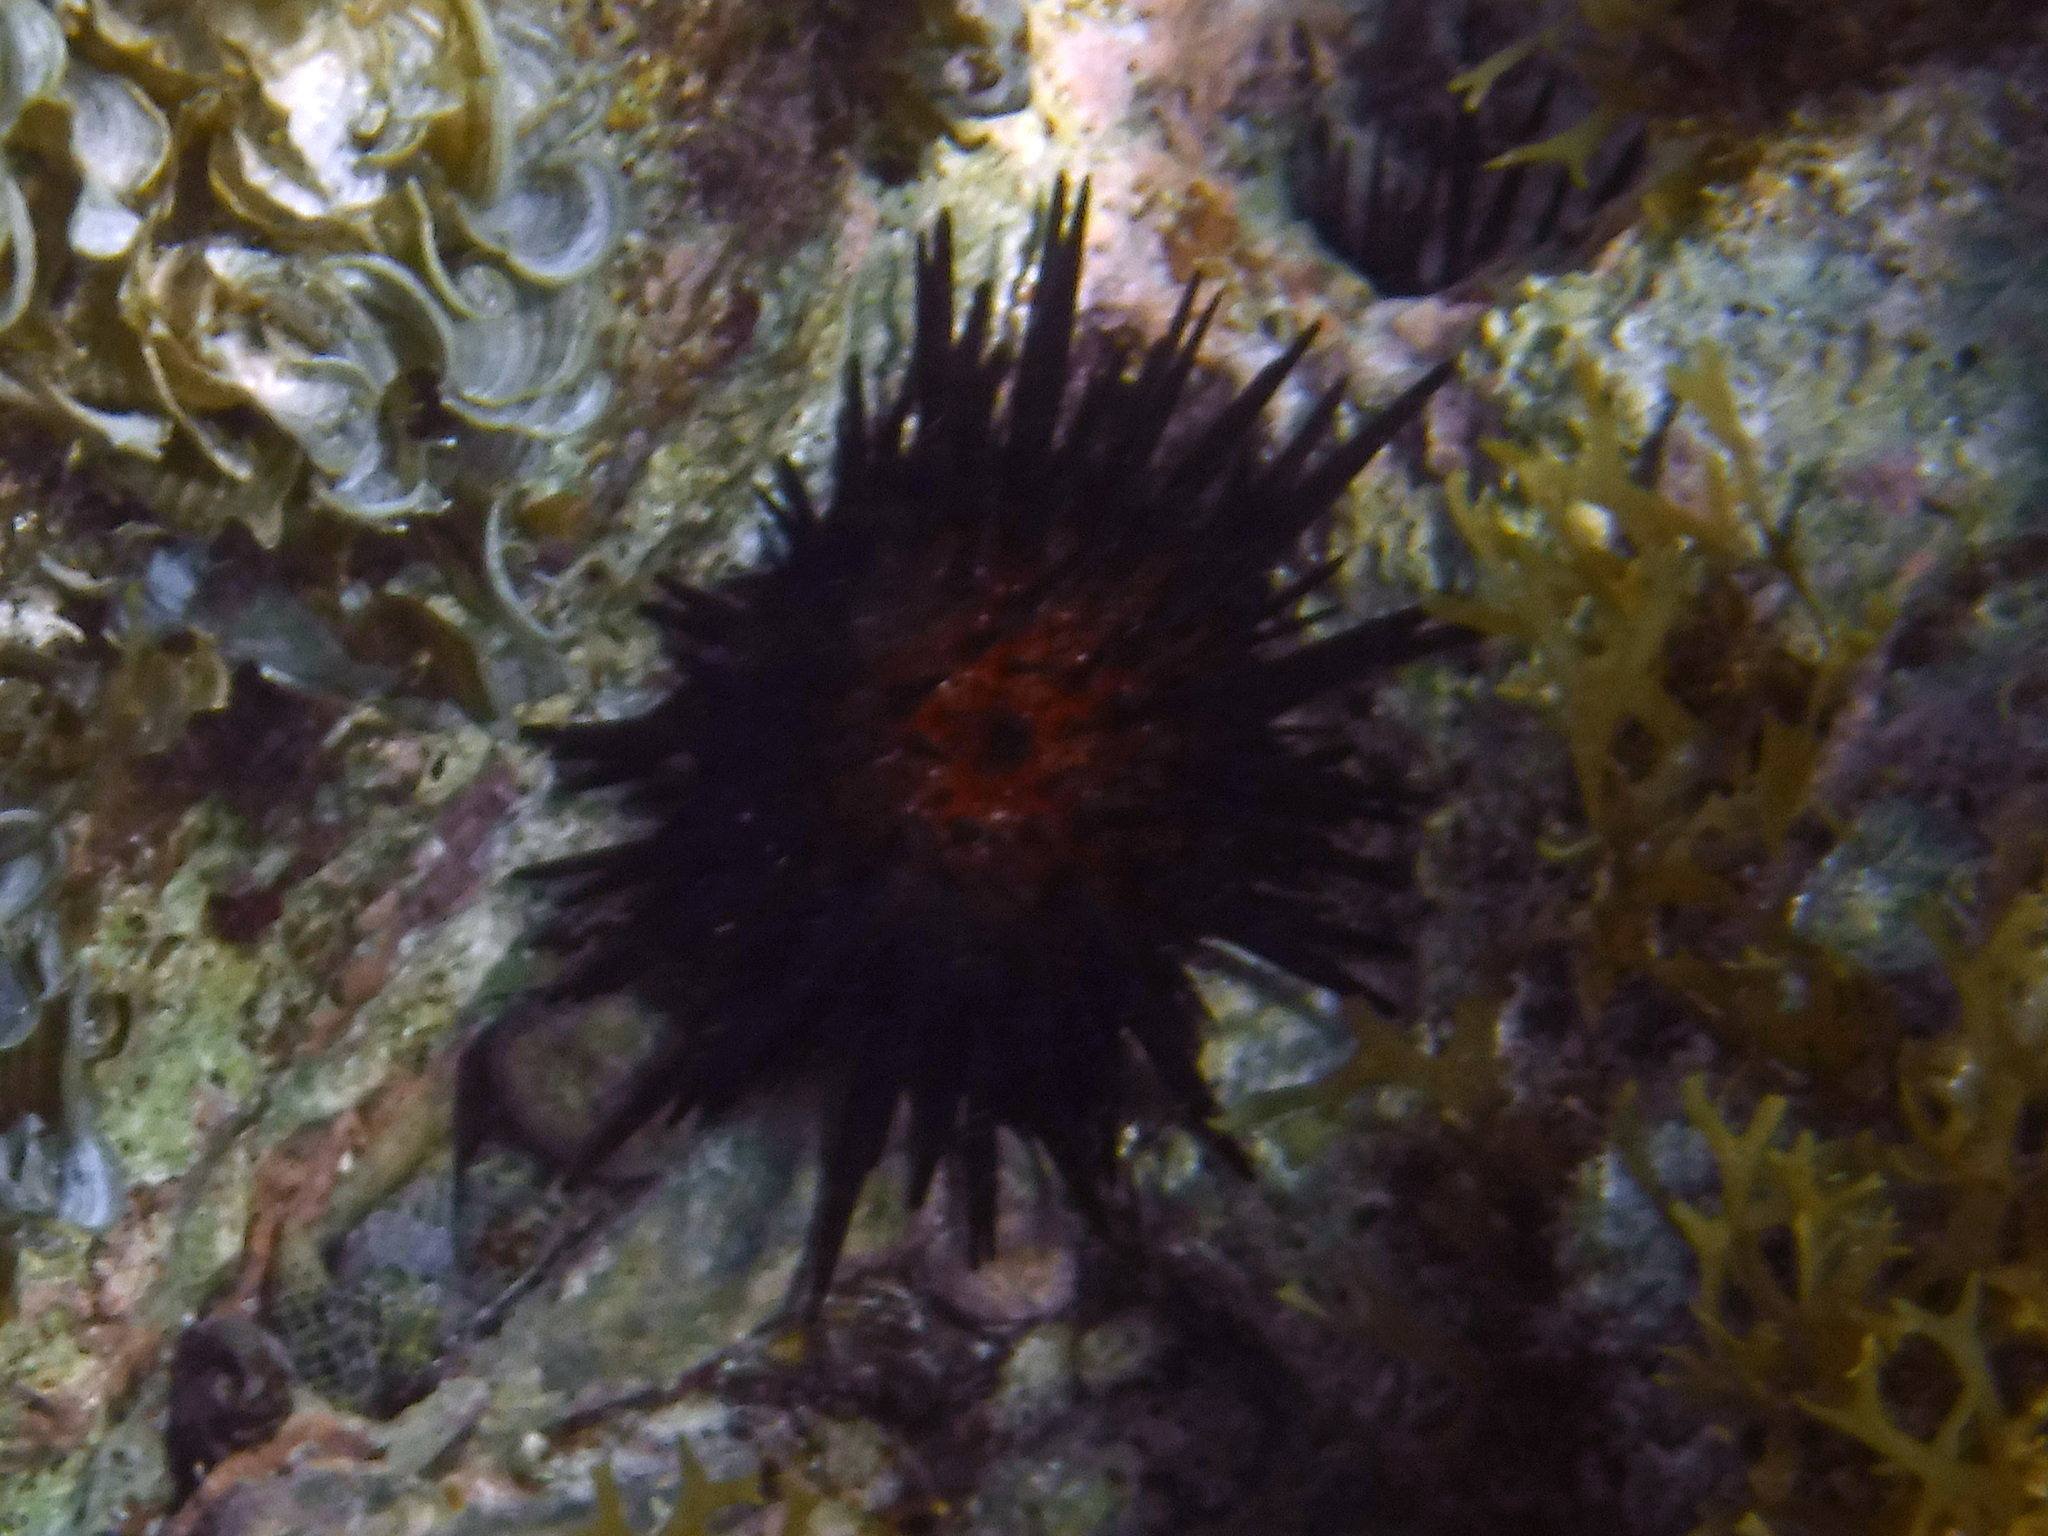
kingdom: Animalia
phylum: Echinodermata
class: Echinoidea
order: Camarodonta
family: Echinometridae
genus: Echinometra
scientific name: Echinometra lucunter
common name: Rock urchin
